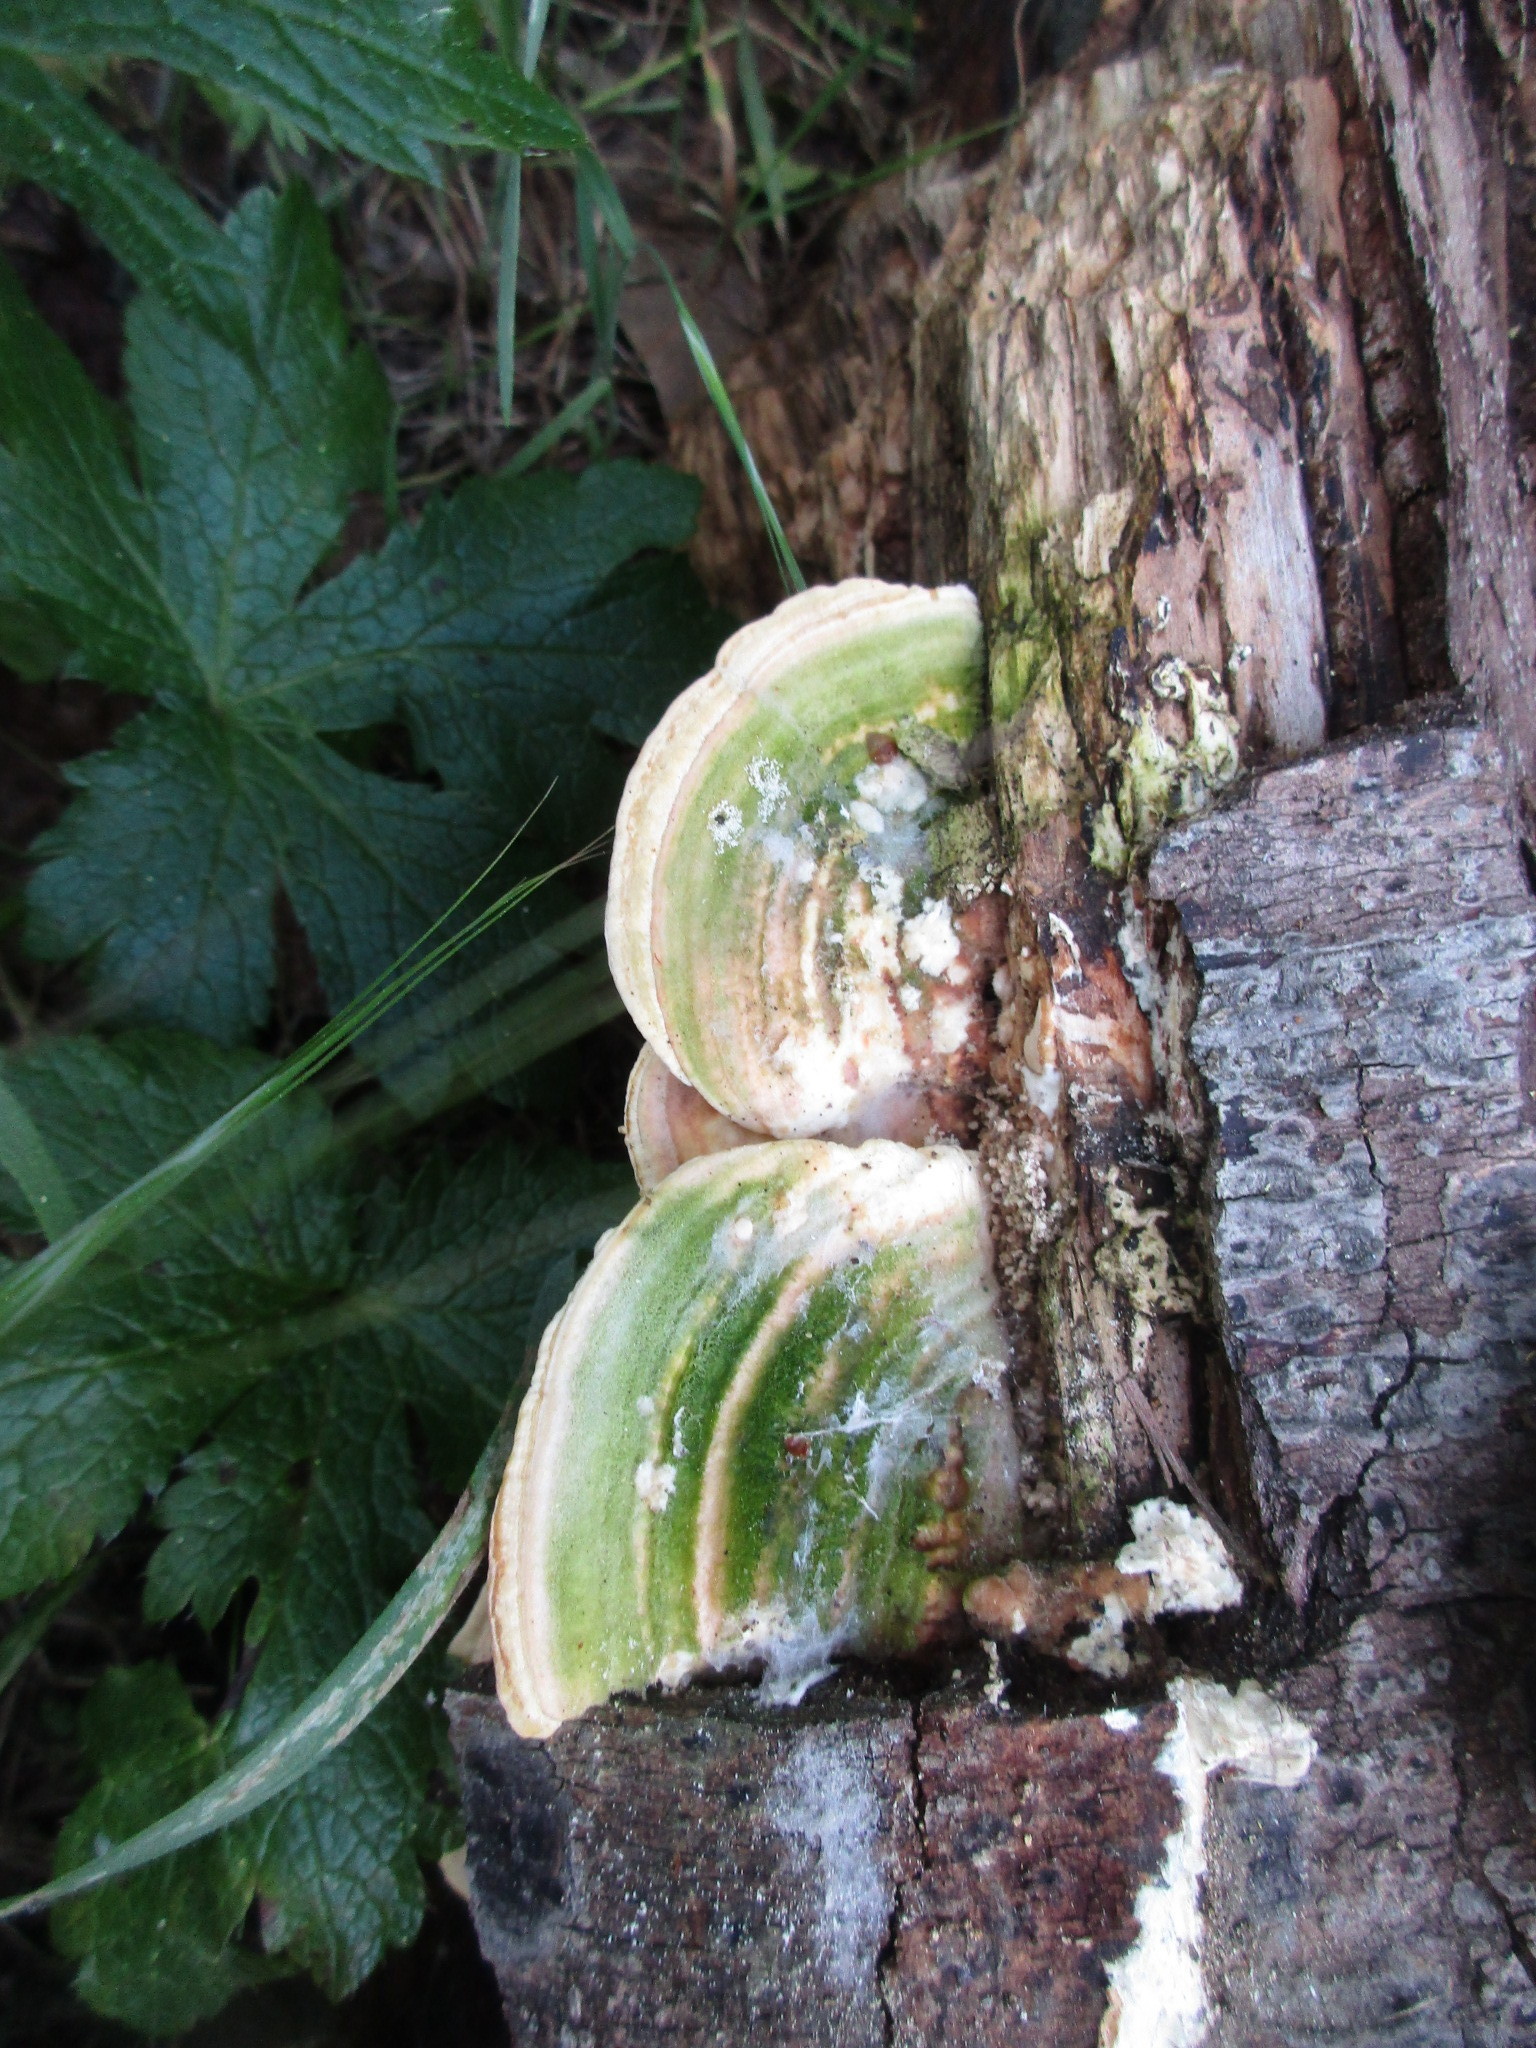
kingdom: Fungi
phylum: Basidiomycota
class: Agaricomycetes
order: Polyporales
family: Polyporaceae
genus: Lenzites
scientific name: Lenzites betulinus
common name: Birch mazegill
